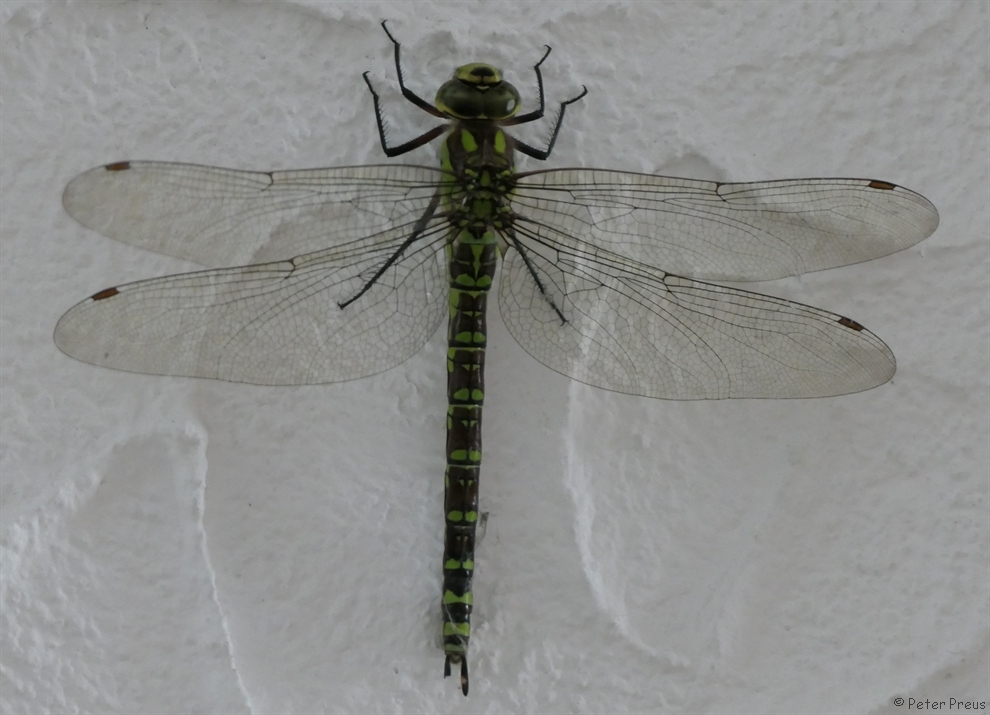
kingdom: Animalia
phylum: Arthropoda
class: Insecta
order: Odonata
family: Aeshnidae
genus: Aeshna
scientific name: Aeshna cyanea
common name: Southern hawker
